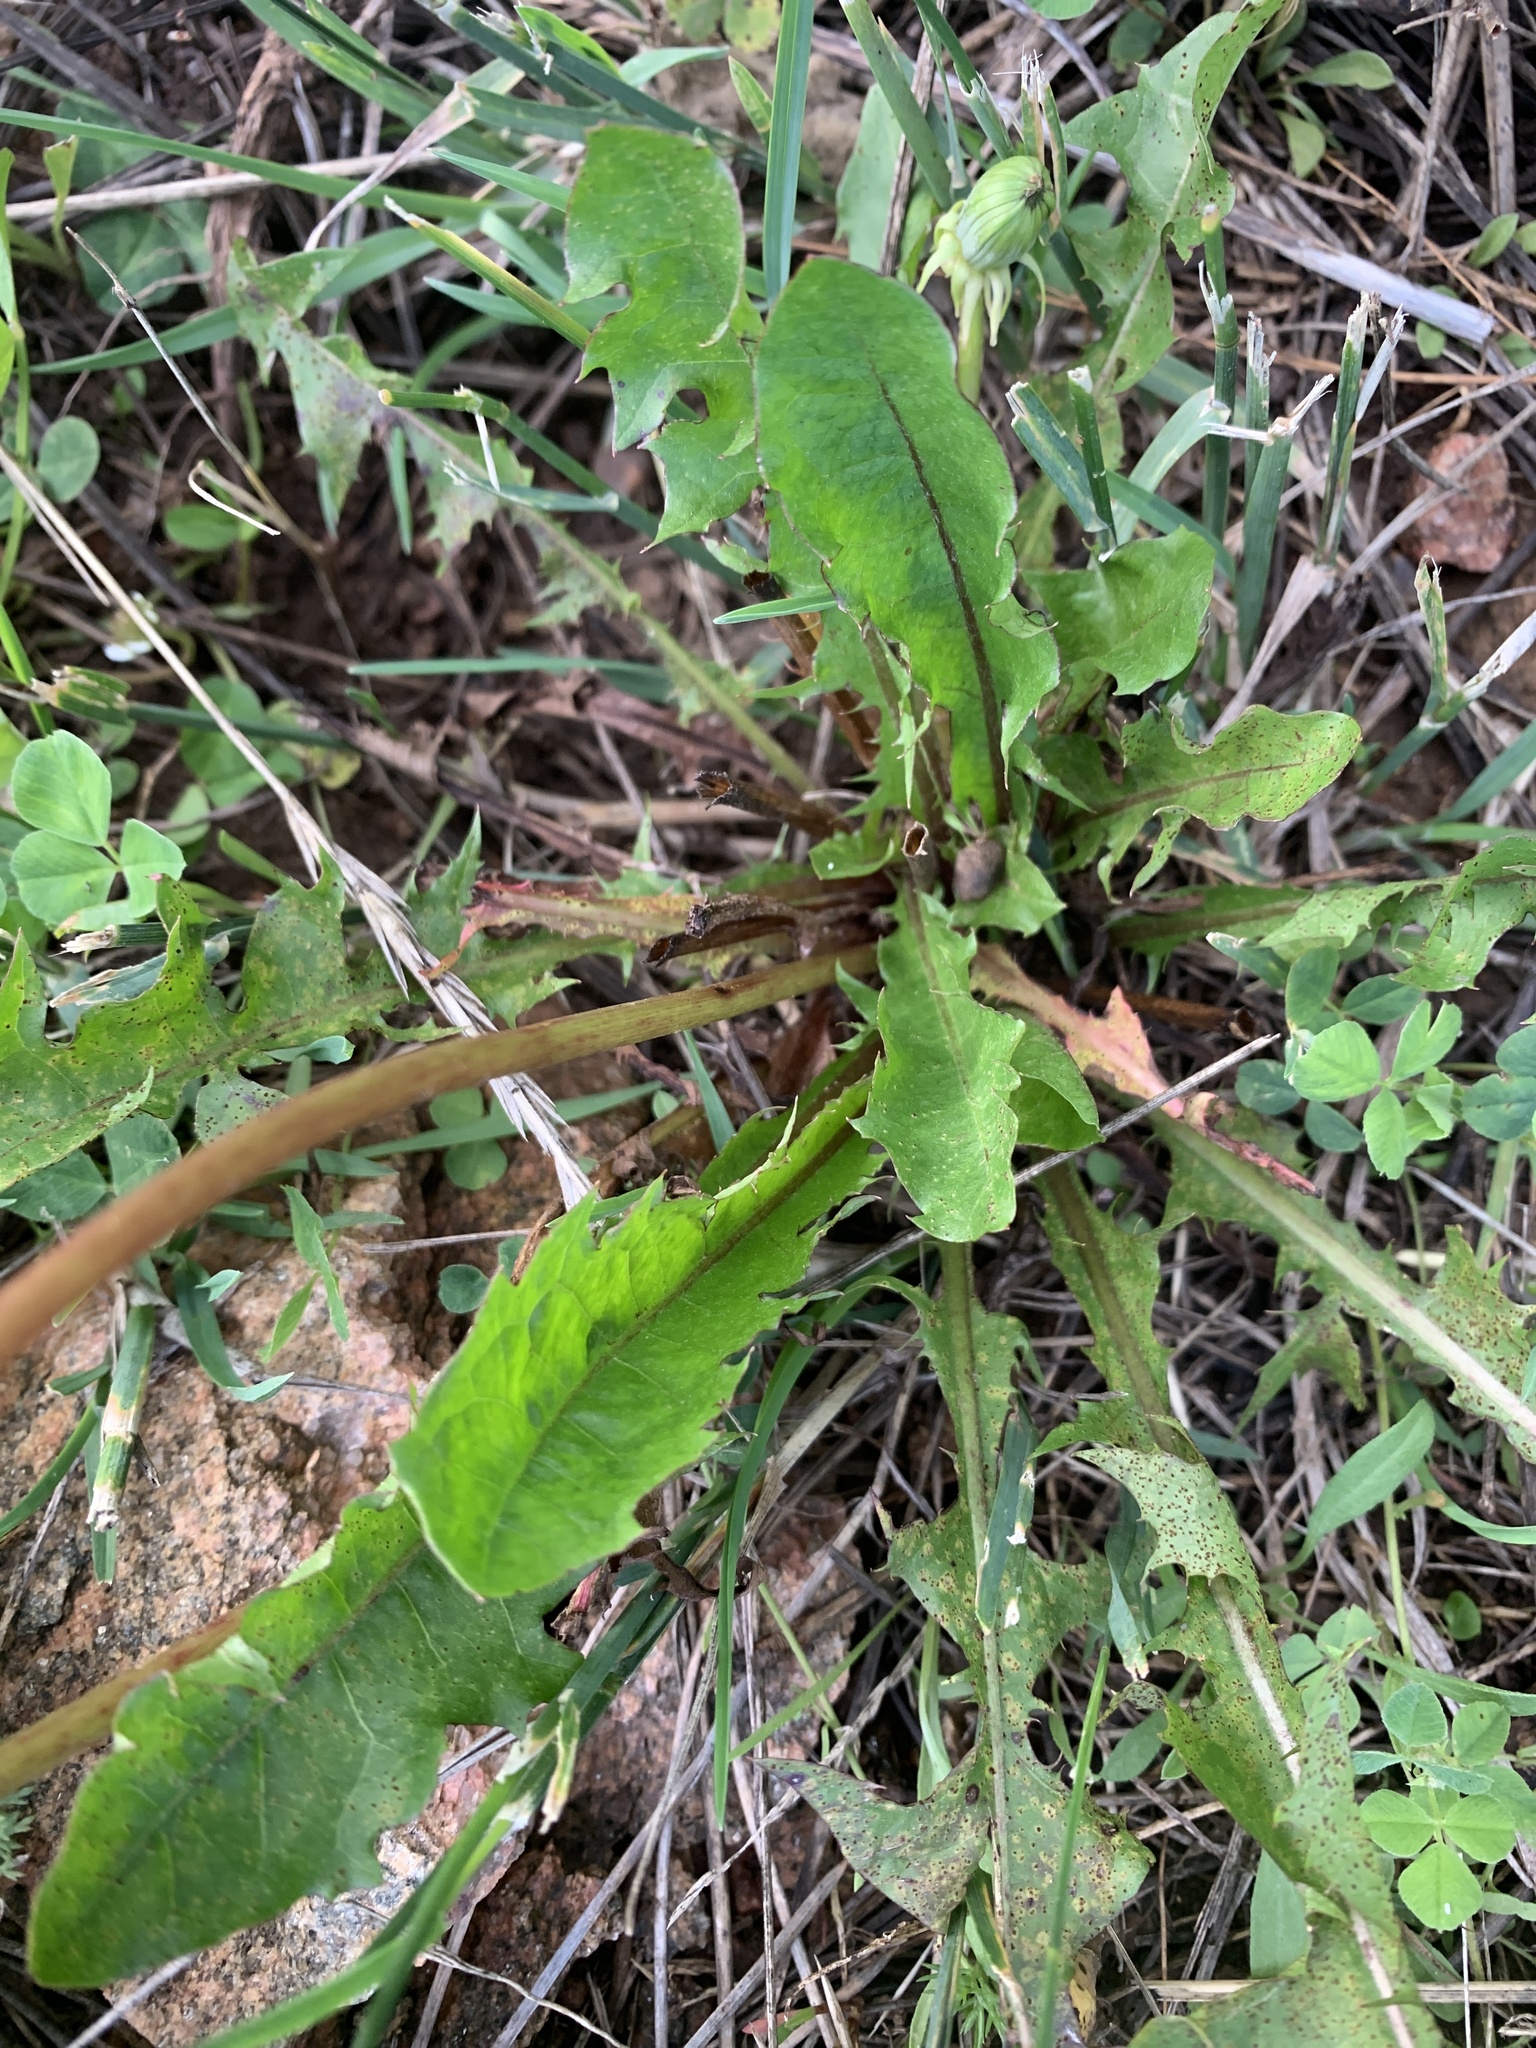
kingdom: Plantae
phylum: Tracheophyta
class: Magnoliopsida
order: Asterales
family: Asteraceae
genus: Taraxacum
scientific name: Taraxacum officinale
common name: Common dandelion
